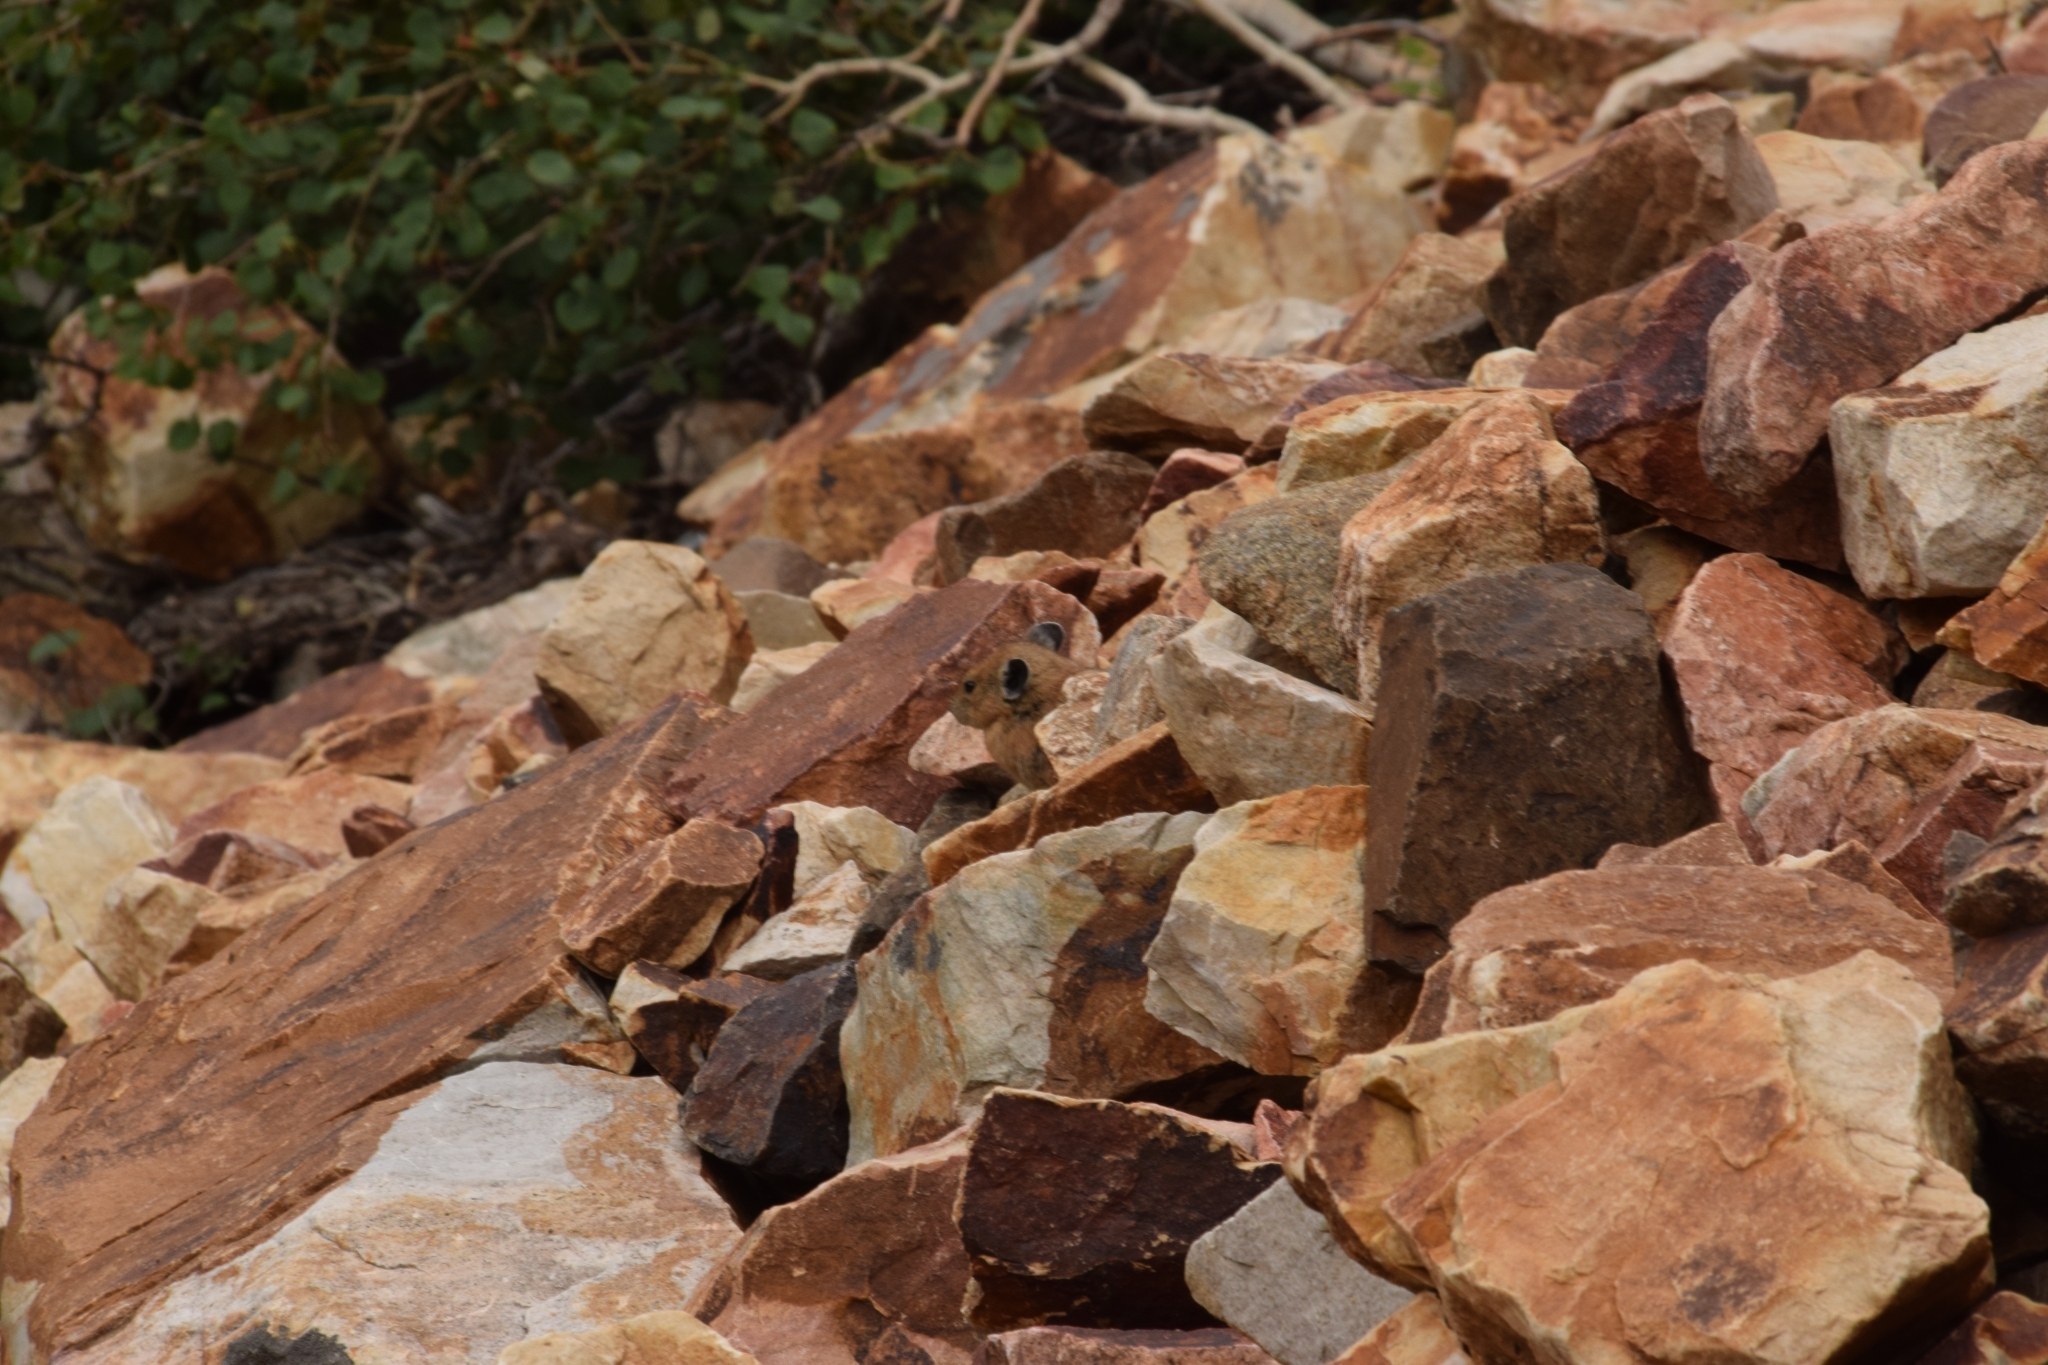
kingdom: Animalia
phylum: Chordata
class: Mammalia
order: Lagomorpha
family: Ochotonidae
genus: Ochotona
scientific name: Ochotona princeps
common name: American pika
